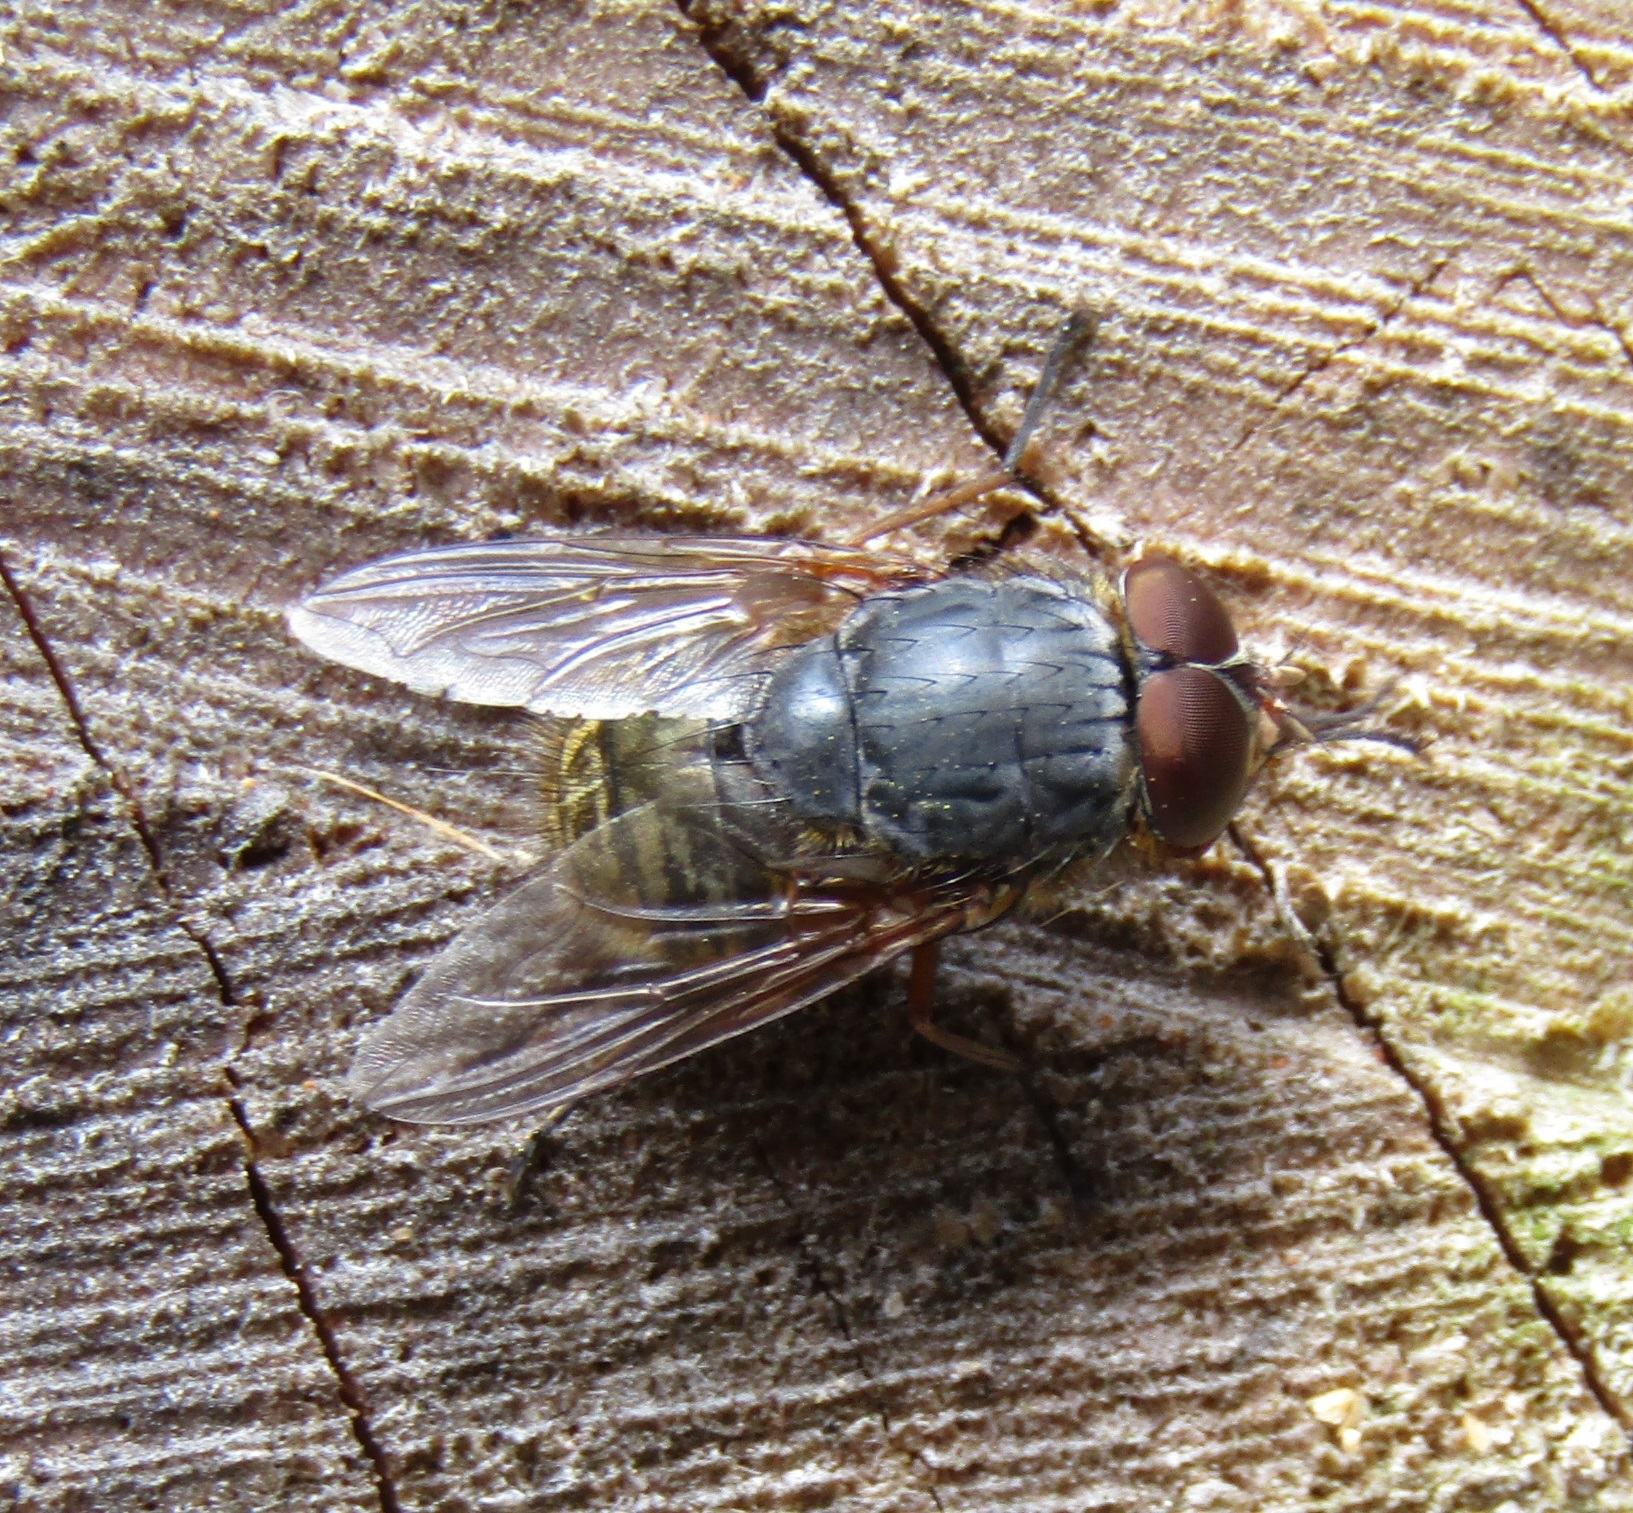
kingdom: Animalia
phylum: Arthropoda
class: Insecta
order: Diptera
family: Calliphoridae
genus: Calliphora
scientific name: Calliphora stygia
